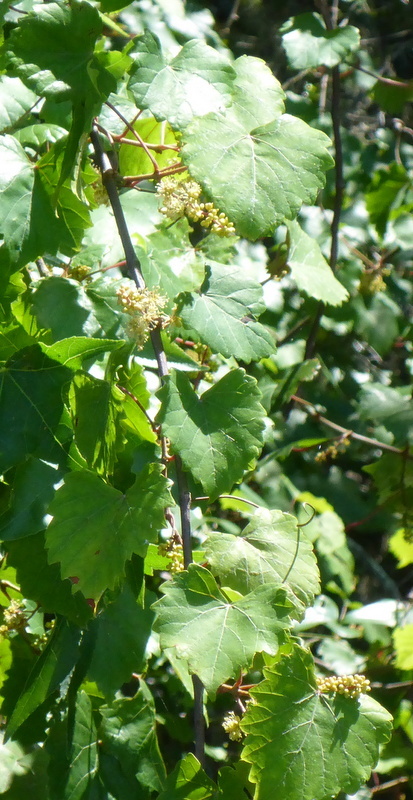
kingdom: Plantae
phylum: Tracheophyta
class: Magnoliopsida
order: Vitales
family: Vitaceae
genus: Vitis
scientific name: Vitis rotundifolia
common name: Muscadine grape
